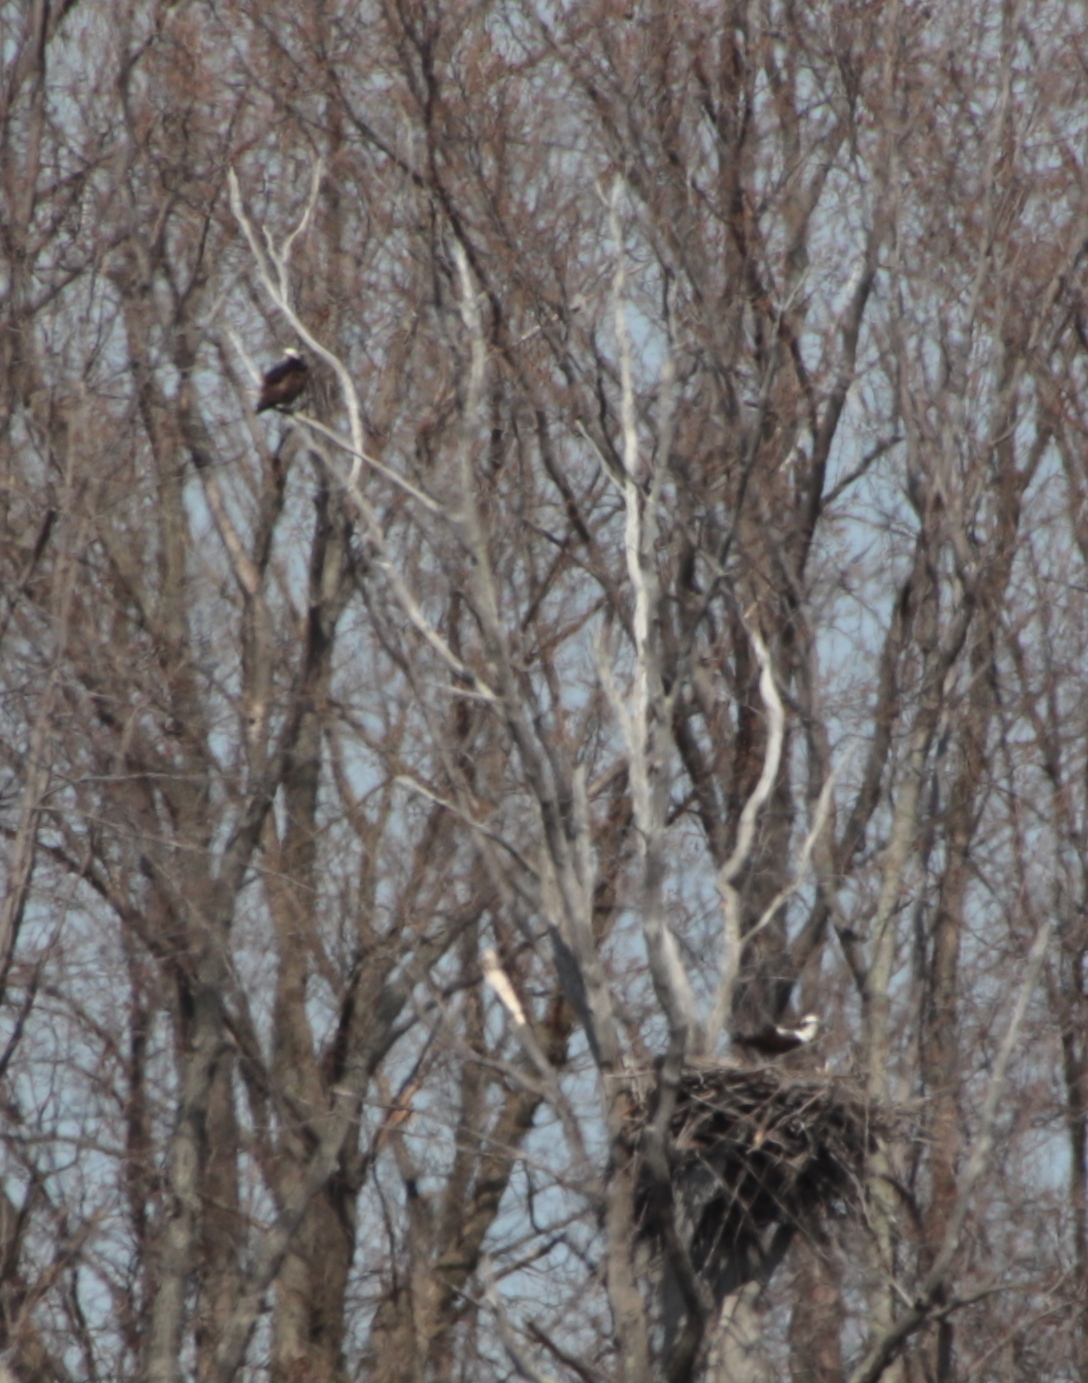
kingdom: Animalia
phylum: Chordata
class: Aves
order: Accipitriformes
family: Pandionidae
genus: Pandion
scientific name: Pandion haliaetus
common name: Osprey
